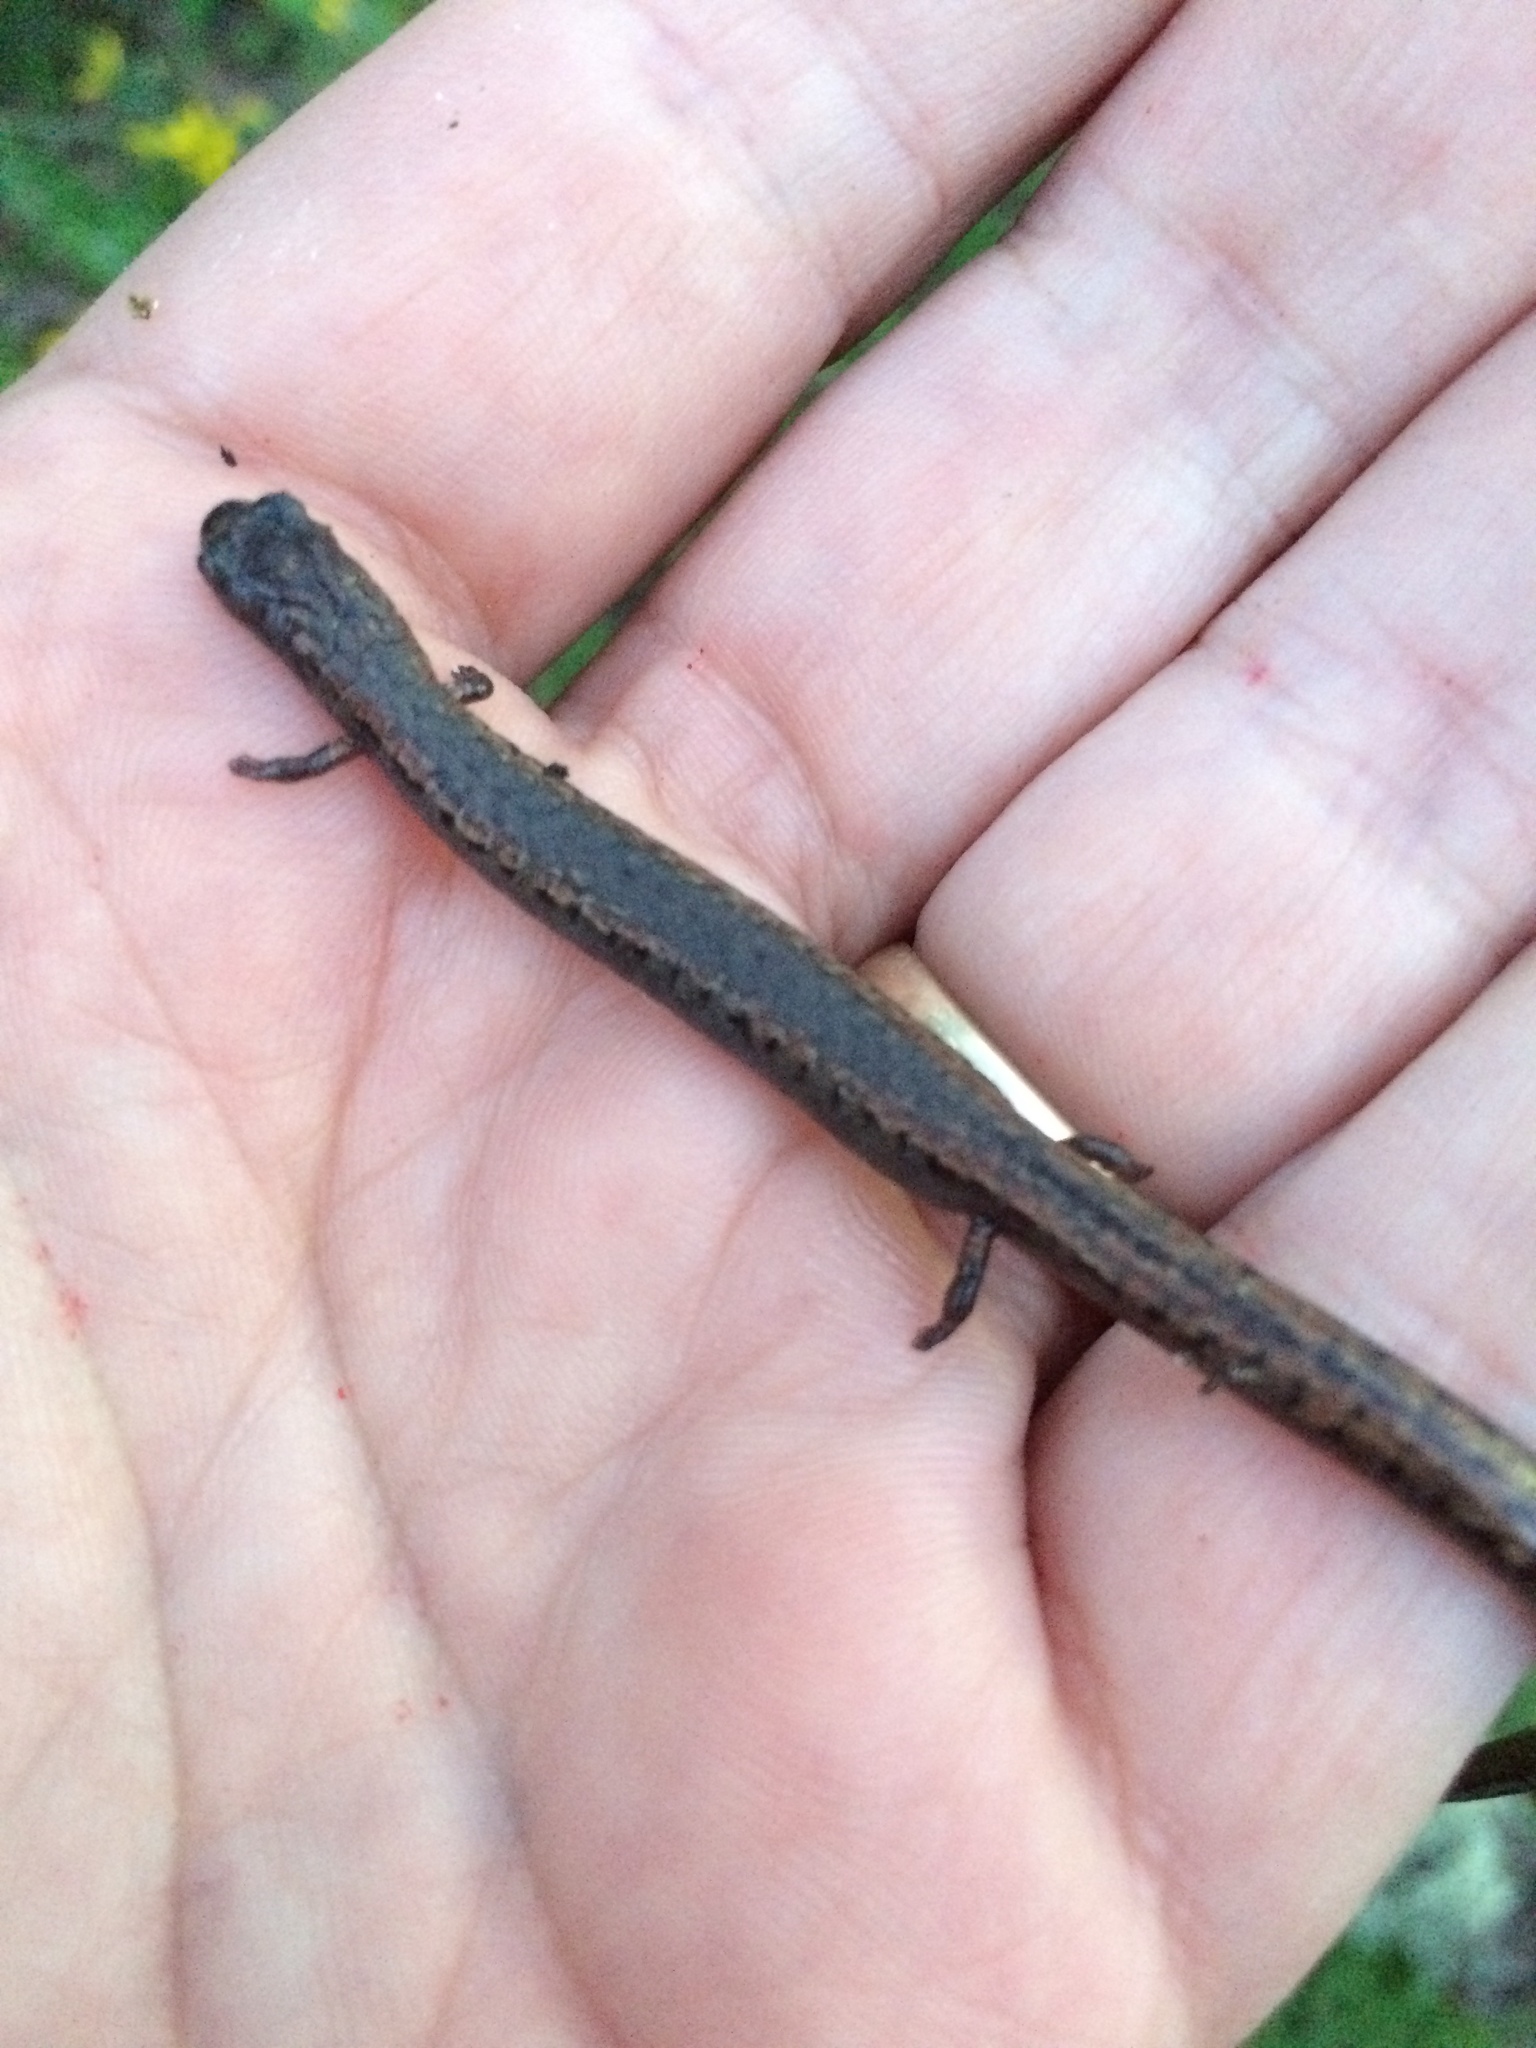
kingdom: Animalia
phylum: Chordata
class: Amphibia
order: Caudata
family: Plethodontidae
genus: Batrachoseps
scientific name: Batrachoseps attenuatus
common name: California slender salamander
